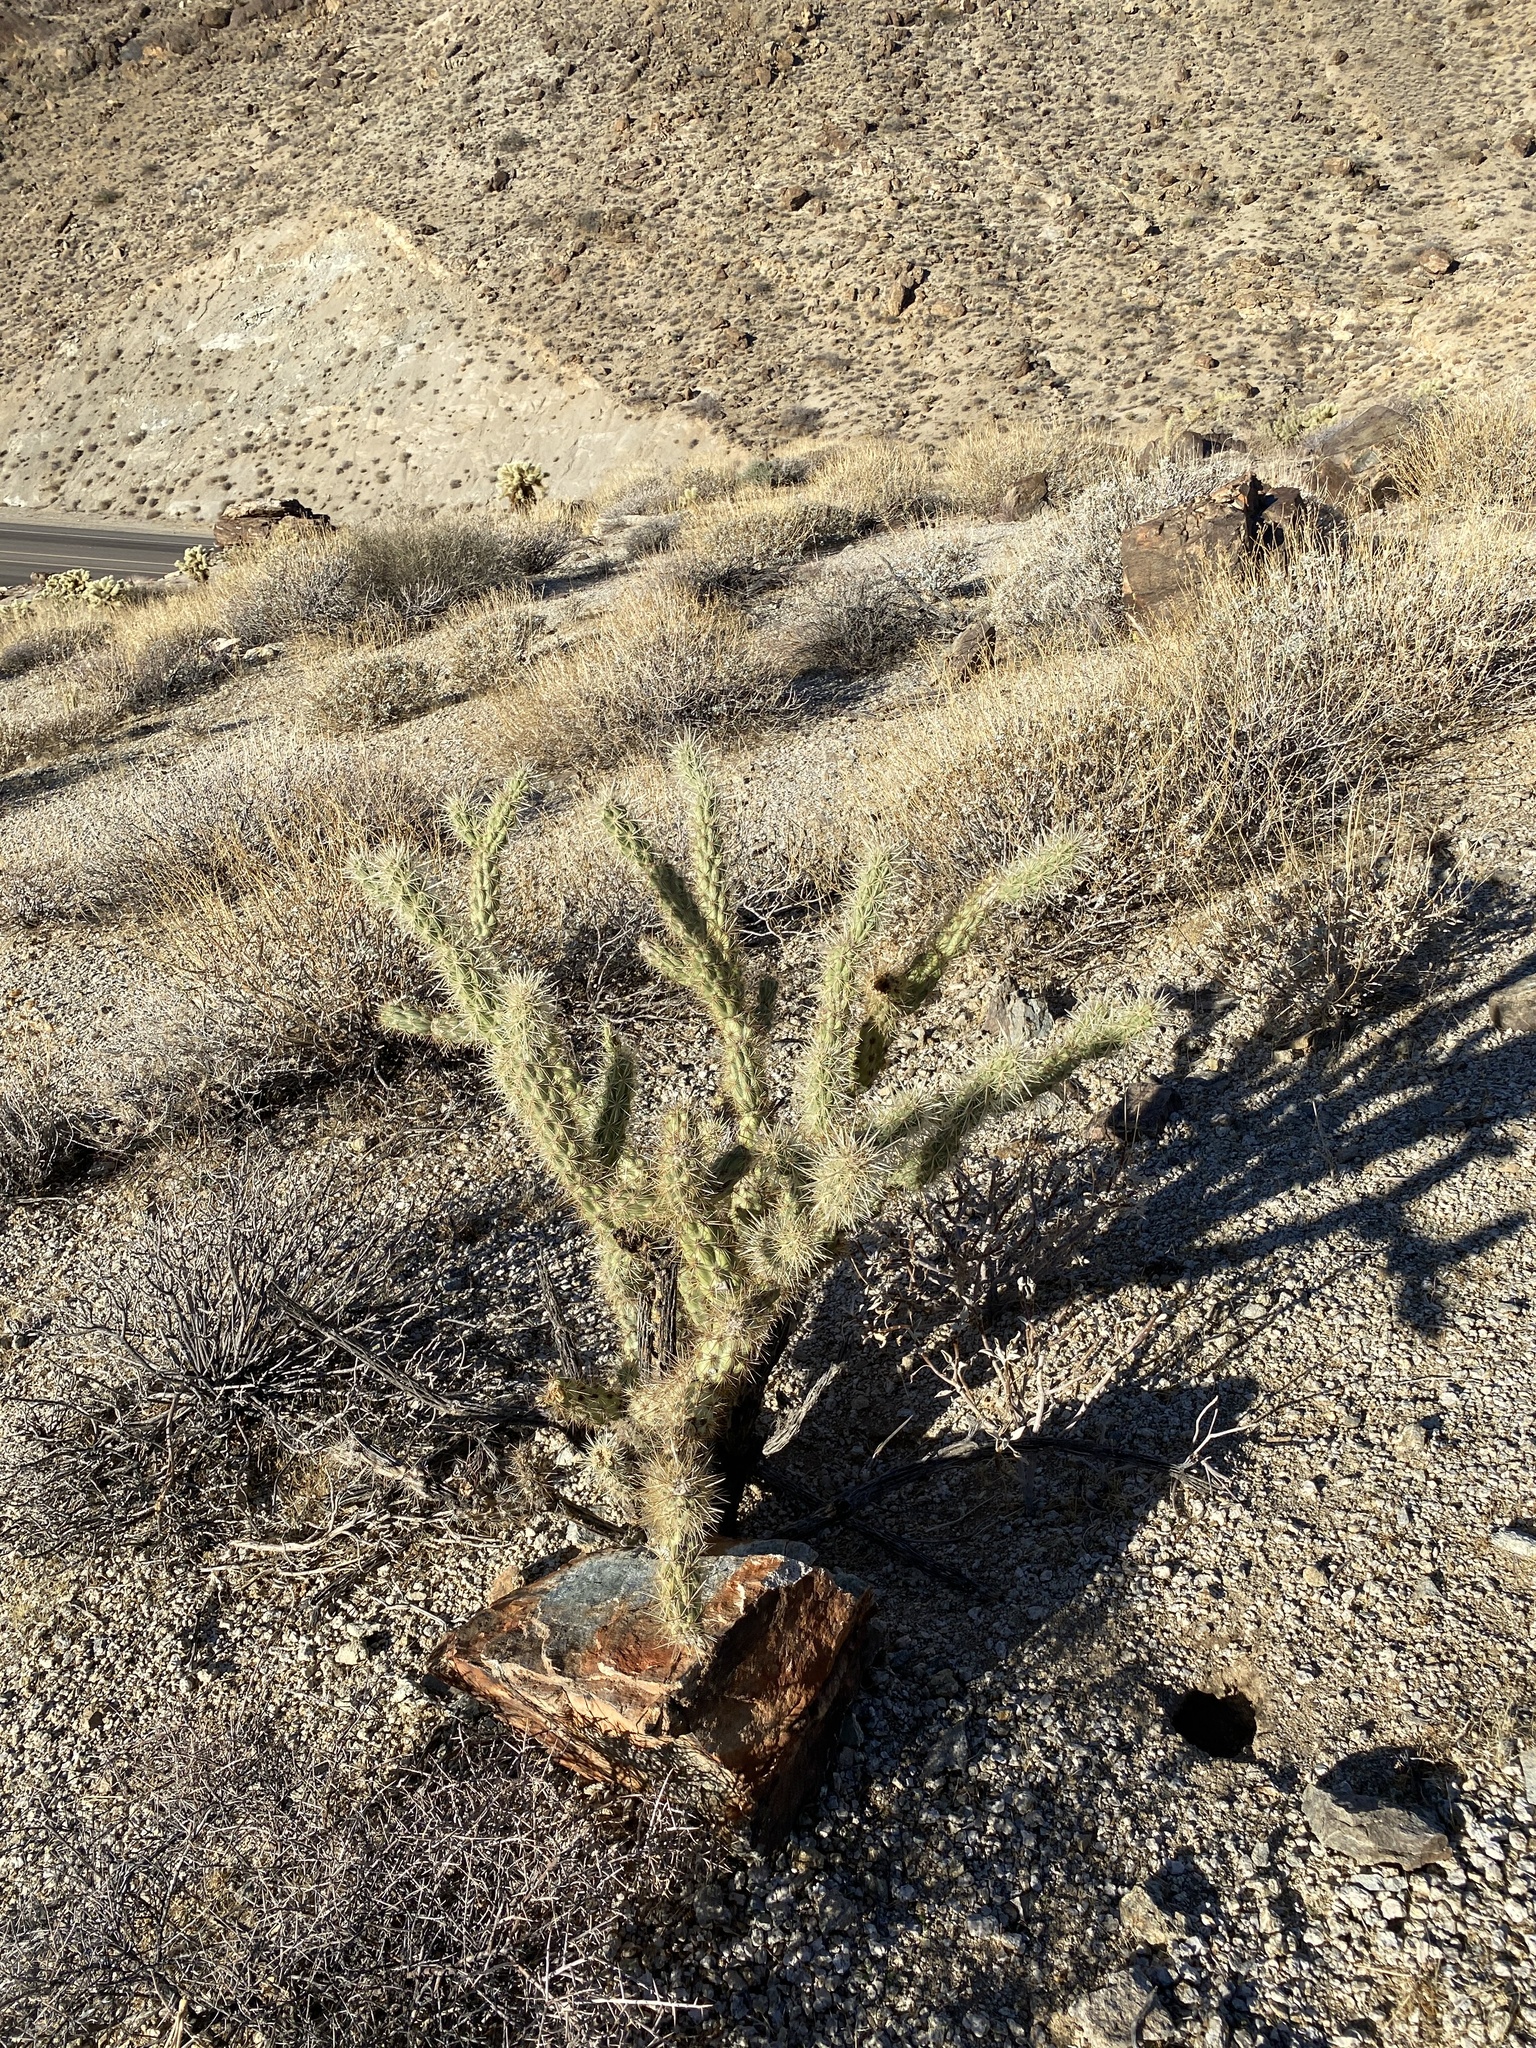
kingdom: Plantae
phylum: Tracheophyta
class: Magnoliopsida
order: Caryophyllales
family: Cactaceae
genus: Cylindropuntia
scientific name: Cylindropuntia acanthocarpa
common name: Buckhorn cholla
